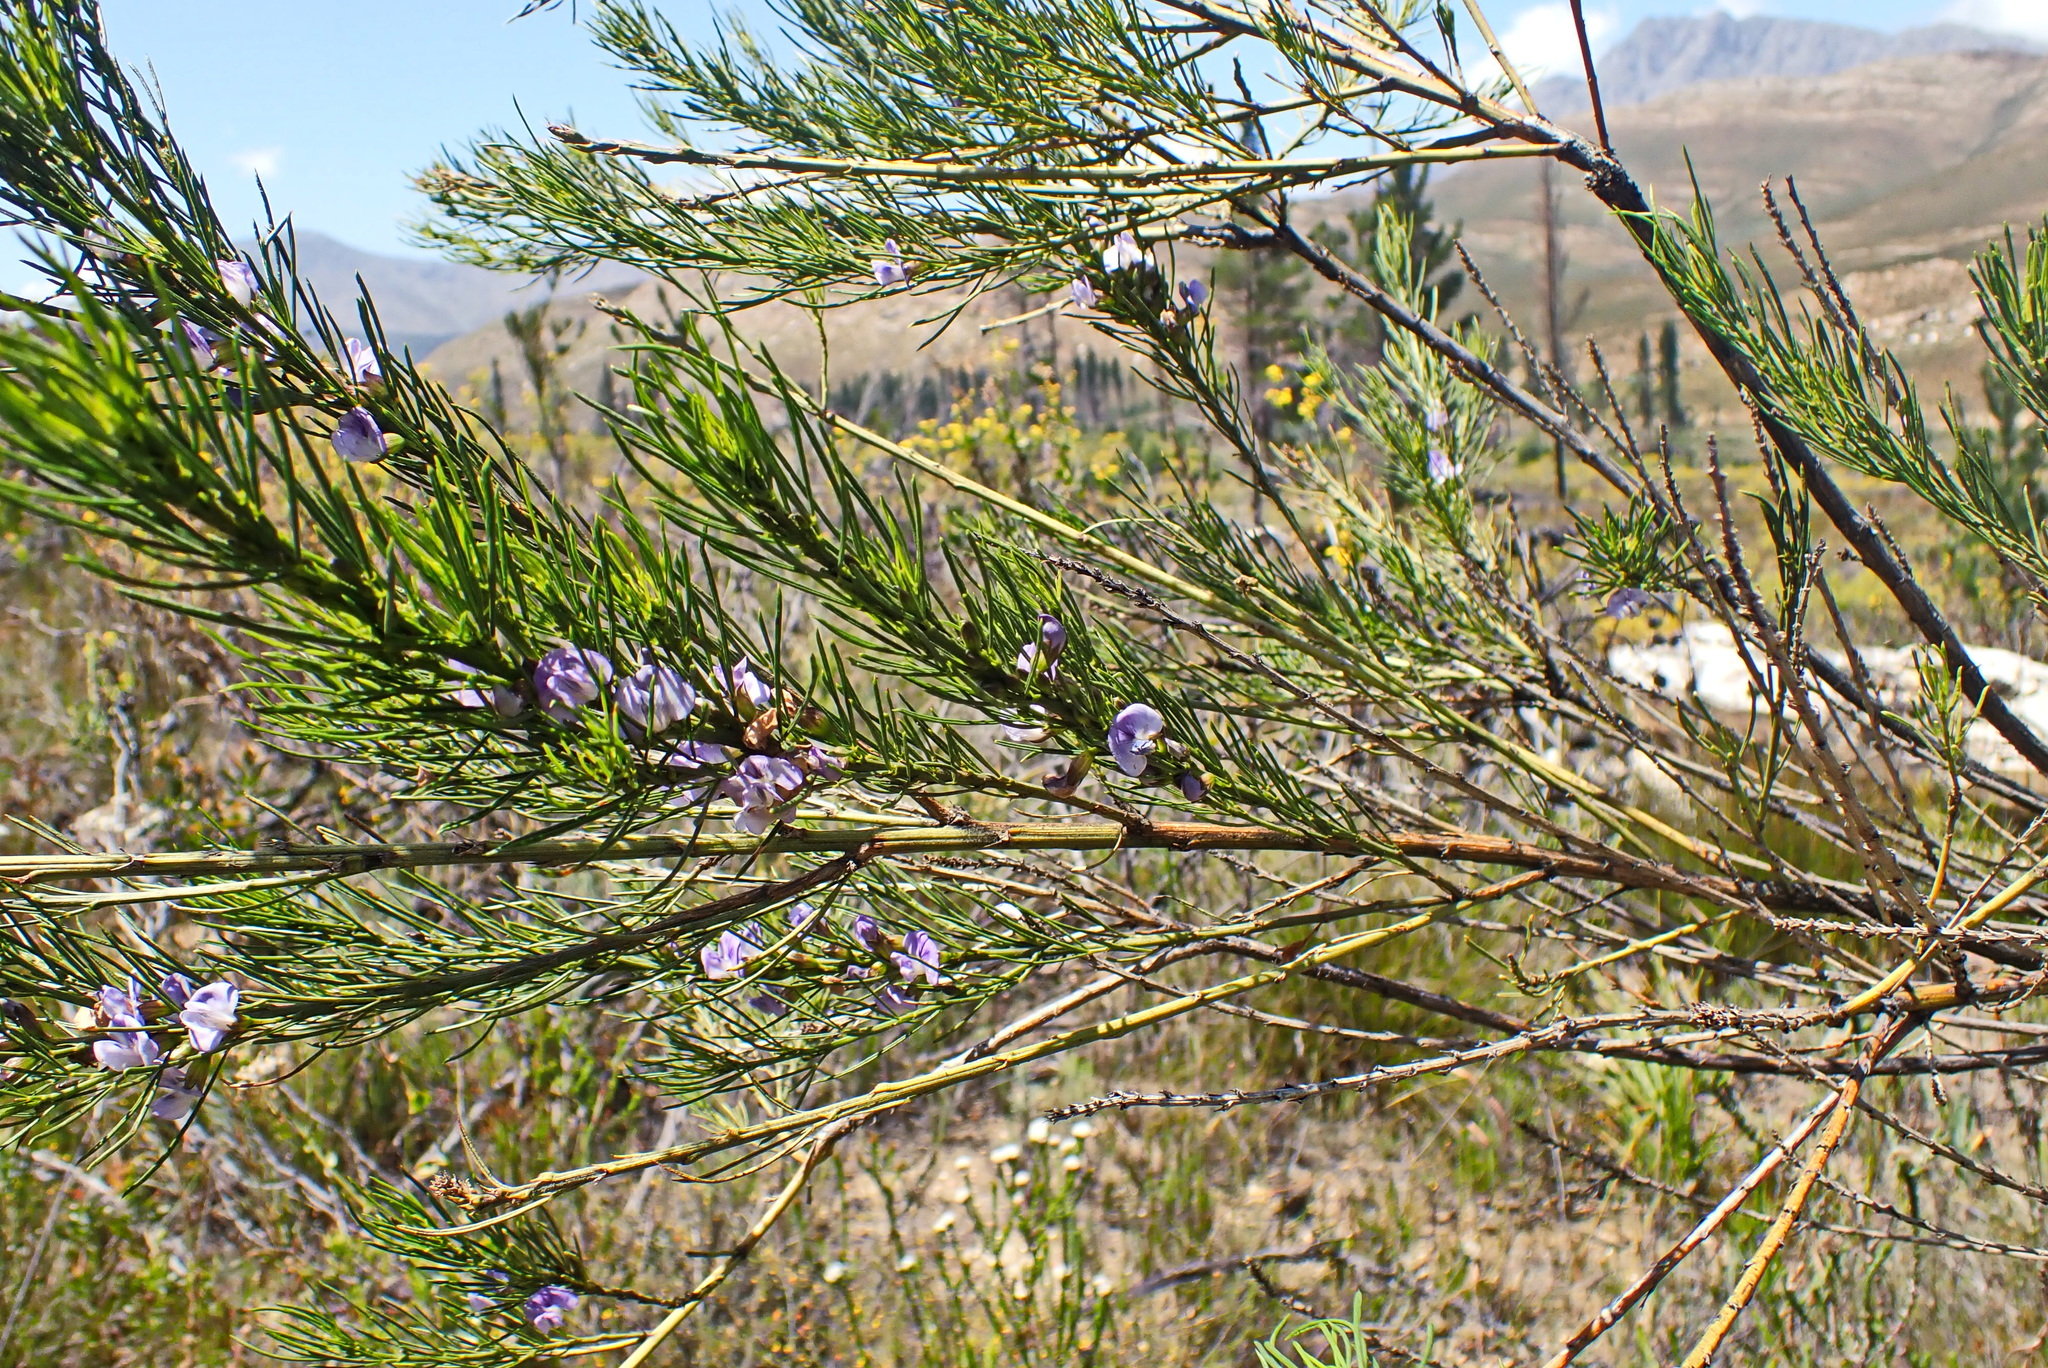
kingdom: Plantae
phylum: Tracheophyta
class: Magnoliopsida
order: Fabales
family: Fabaceae
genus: Psoralea
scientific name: Psoralea sordida
